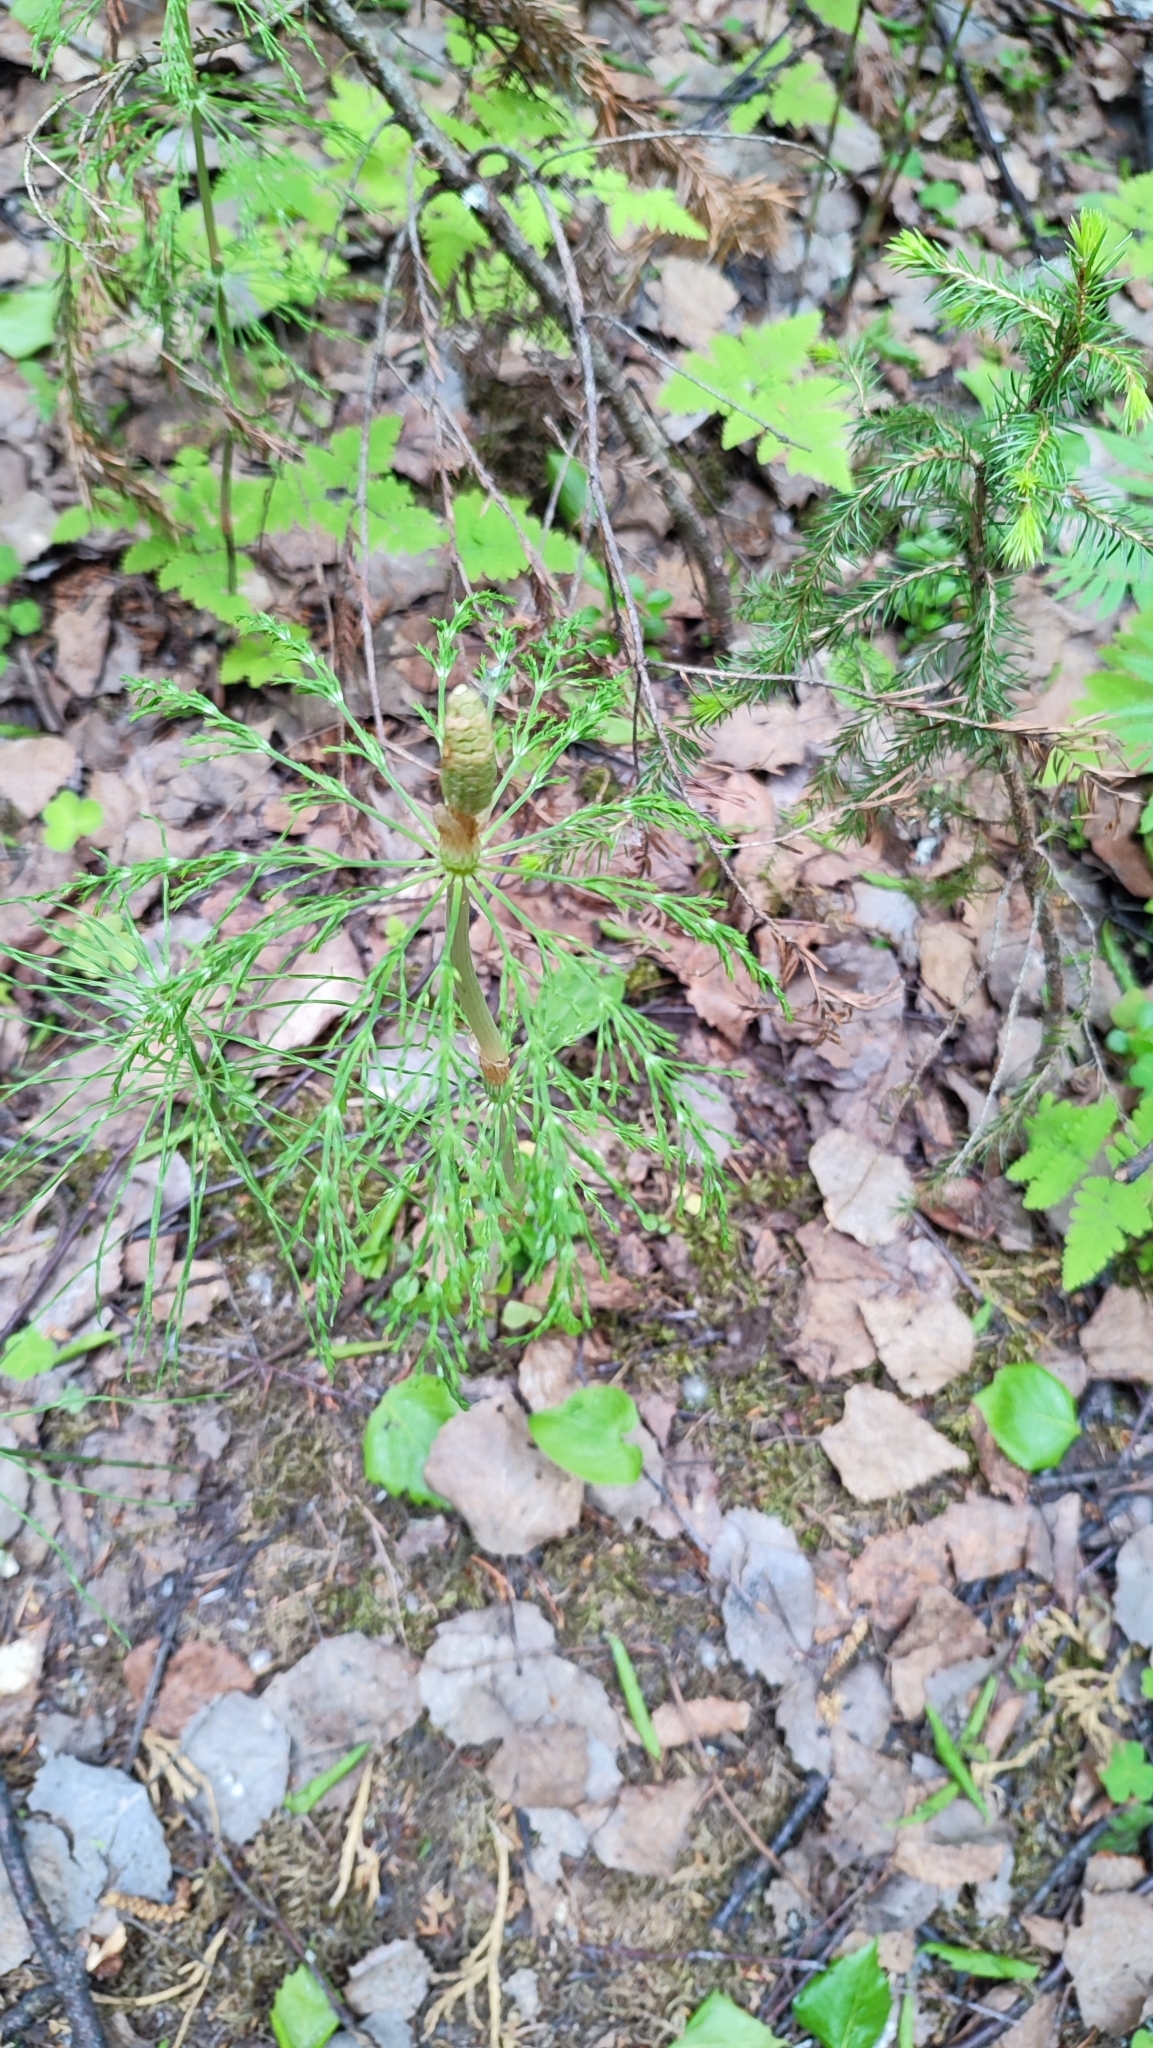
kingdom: Plantae
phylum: Tracheophyta
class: Polypodiopsida
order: Equisetales
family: Equisetaceae
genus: Equisetum
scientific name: Equisetum sylvaticum
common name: Wood horsetail
